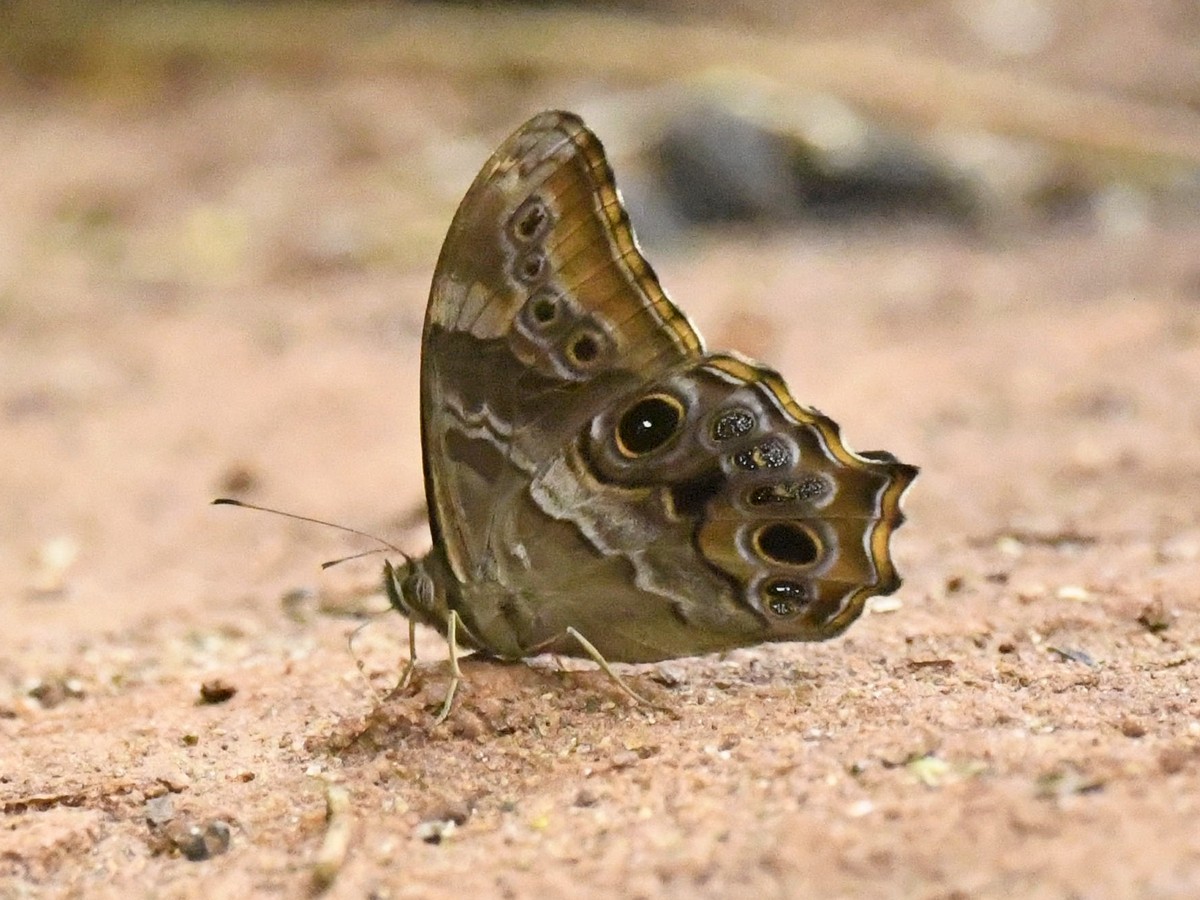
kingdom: Animalia
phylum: Arthropoda
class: Insecta
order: Lepidoptera
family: Nymphalidae
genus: Lethe
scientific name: Lethe europa
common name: Bamboo treebrown
